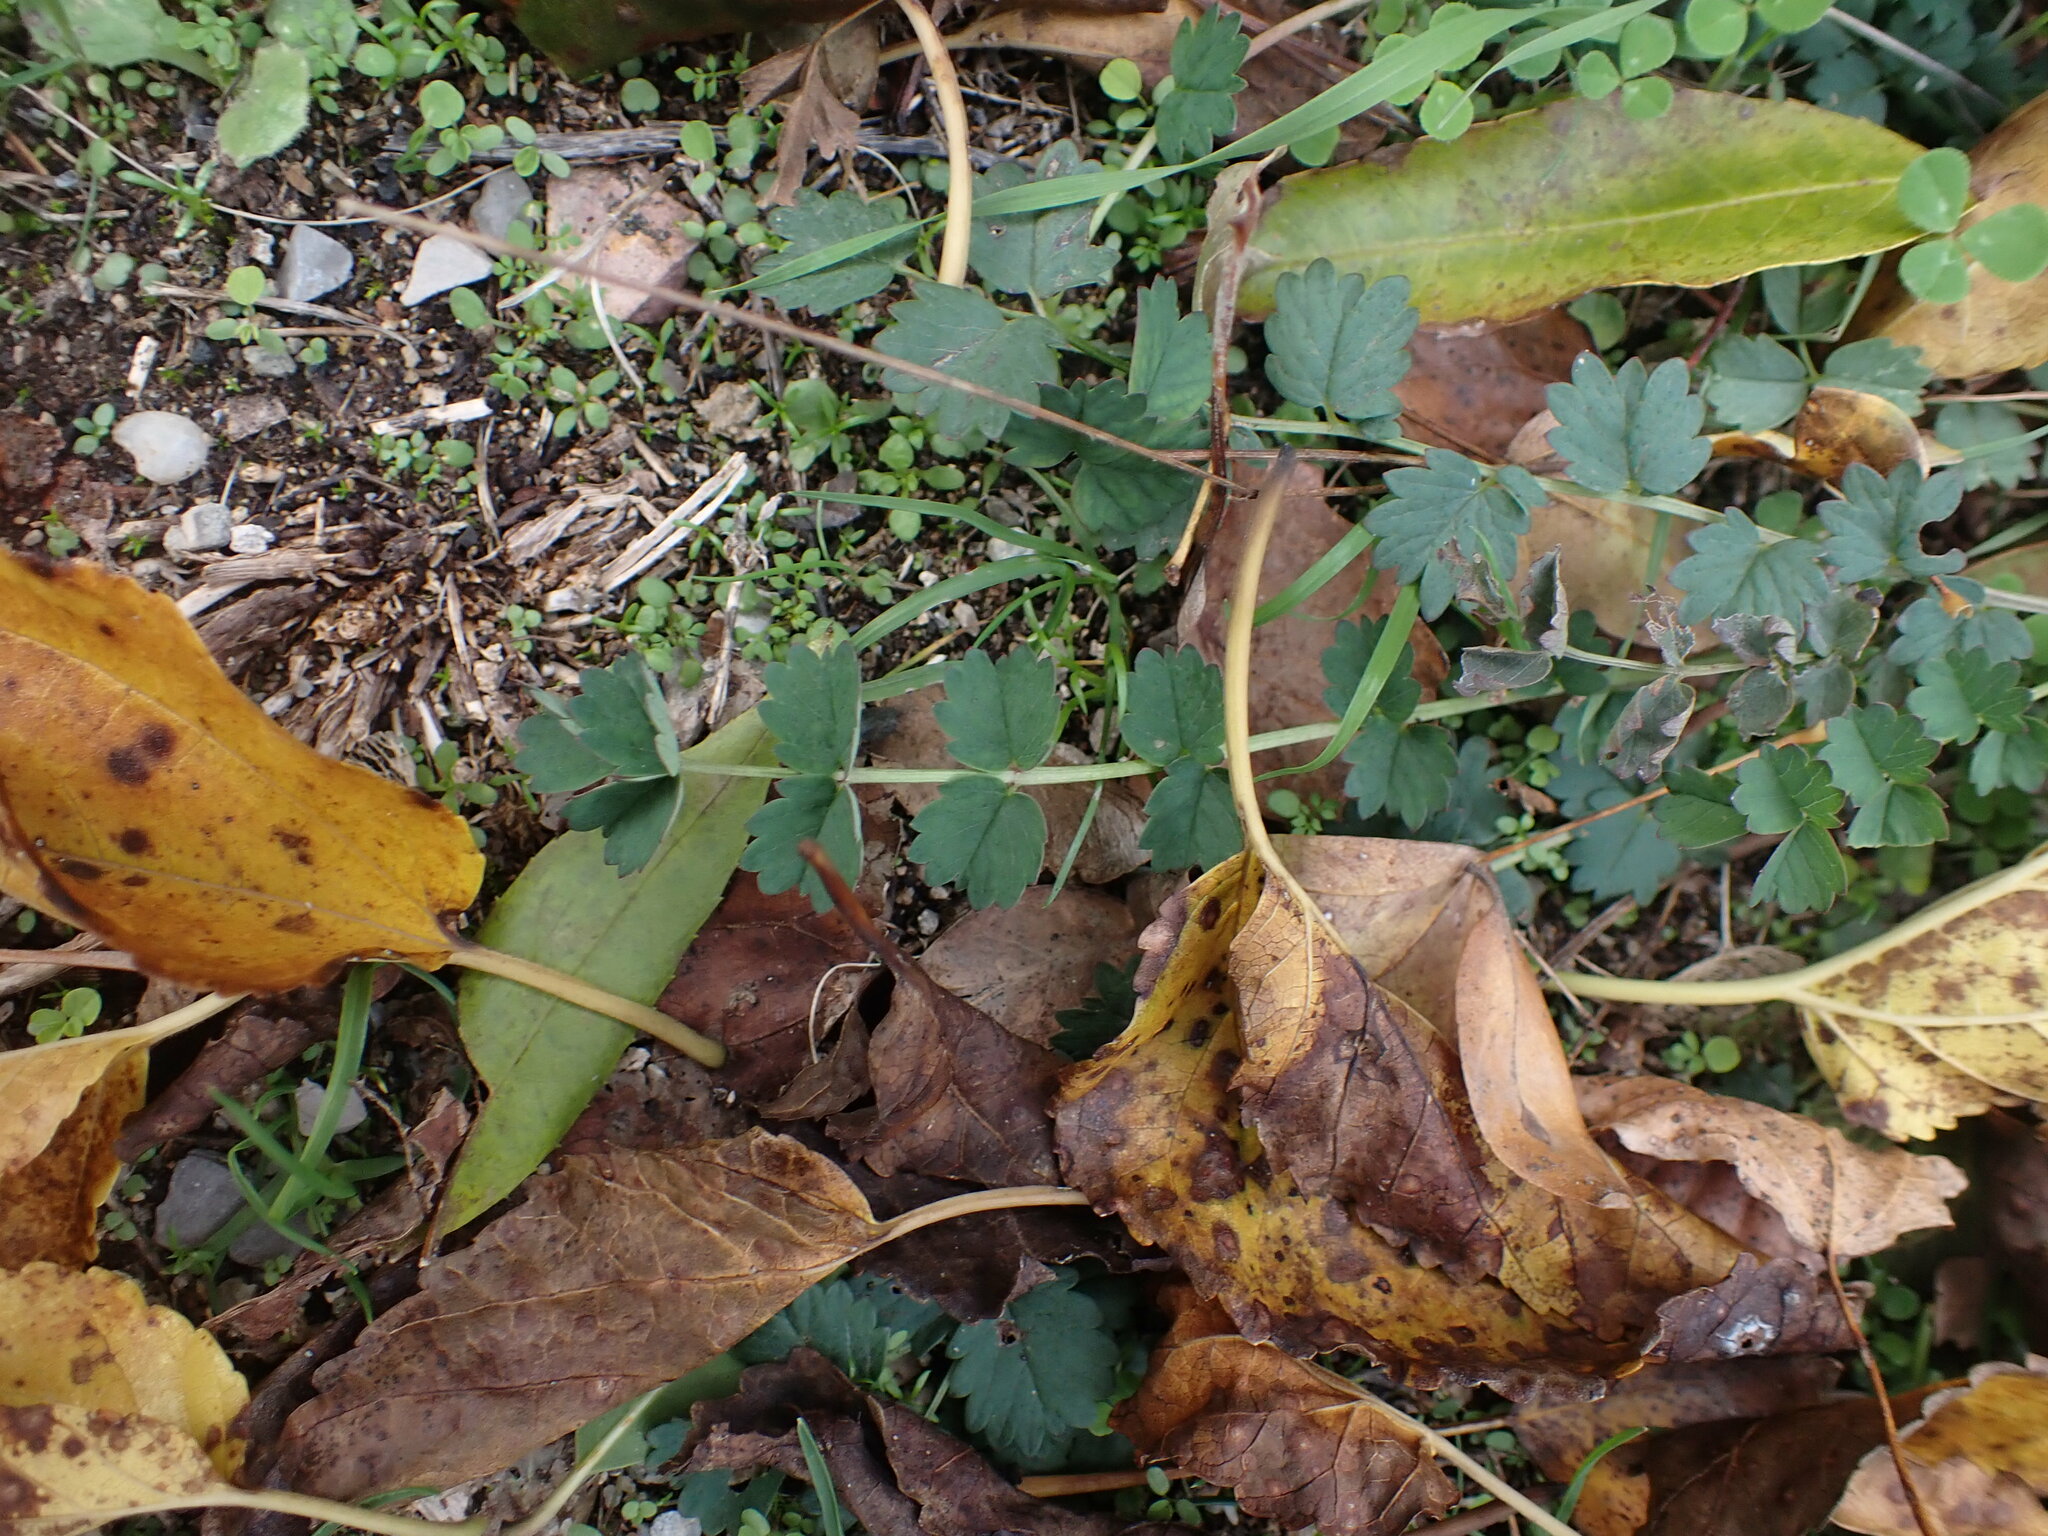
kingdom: Plantae
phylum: Tracheophyta
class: Magnoliopsida
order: Rosales
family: Rosaceae
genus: Poterium
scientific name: Poterium sanguisorba
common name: Salad burnet
